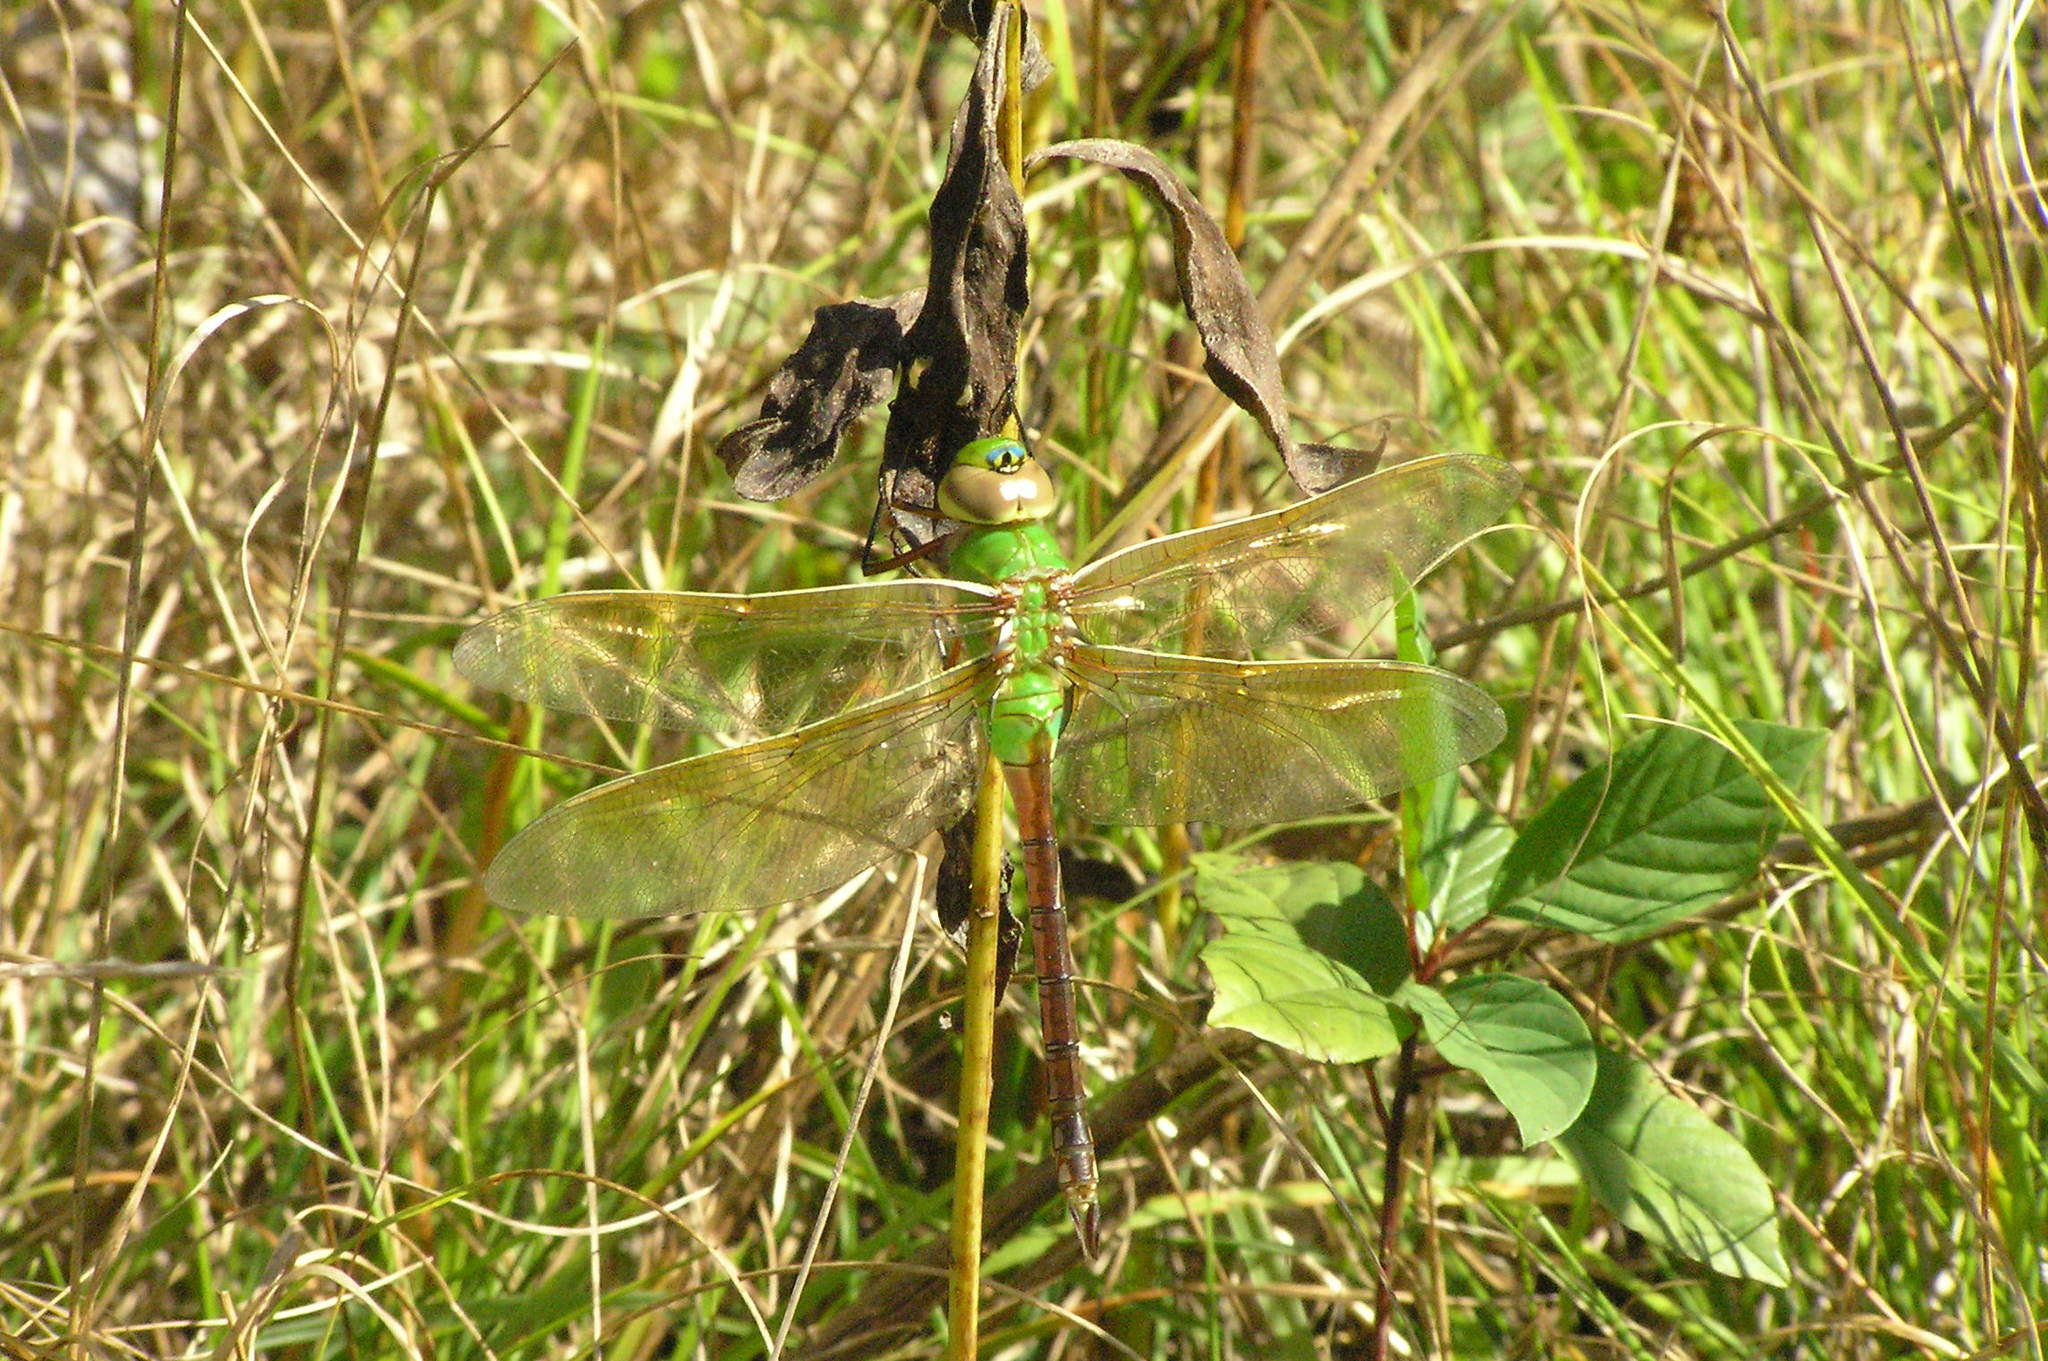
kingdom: Animalia
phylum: Arthropoda
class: Insecta
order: Odonata
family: Aeshnidae
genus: Anax
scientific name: Anax junius
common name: Common green darner
